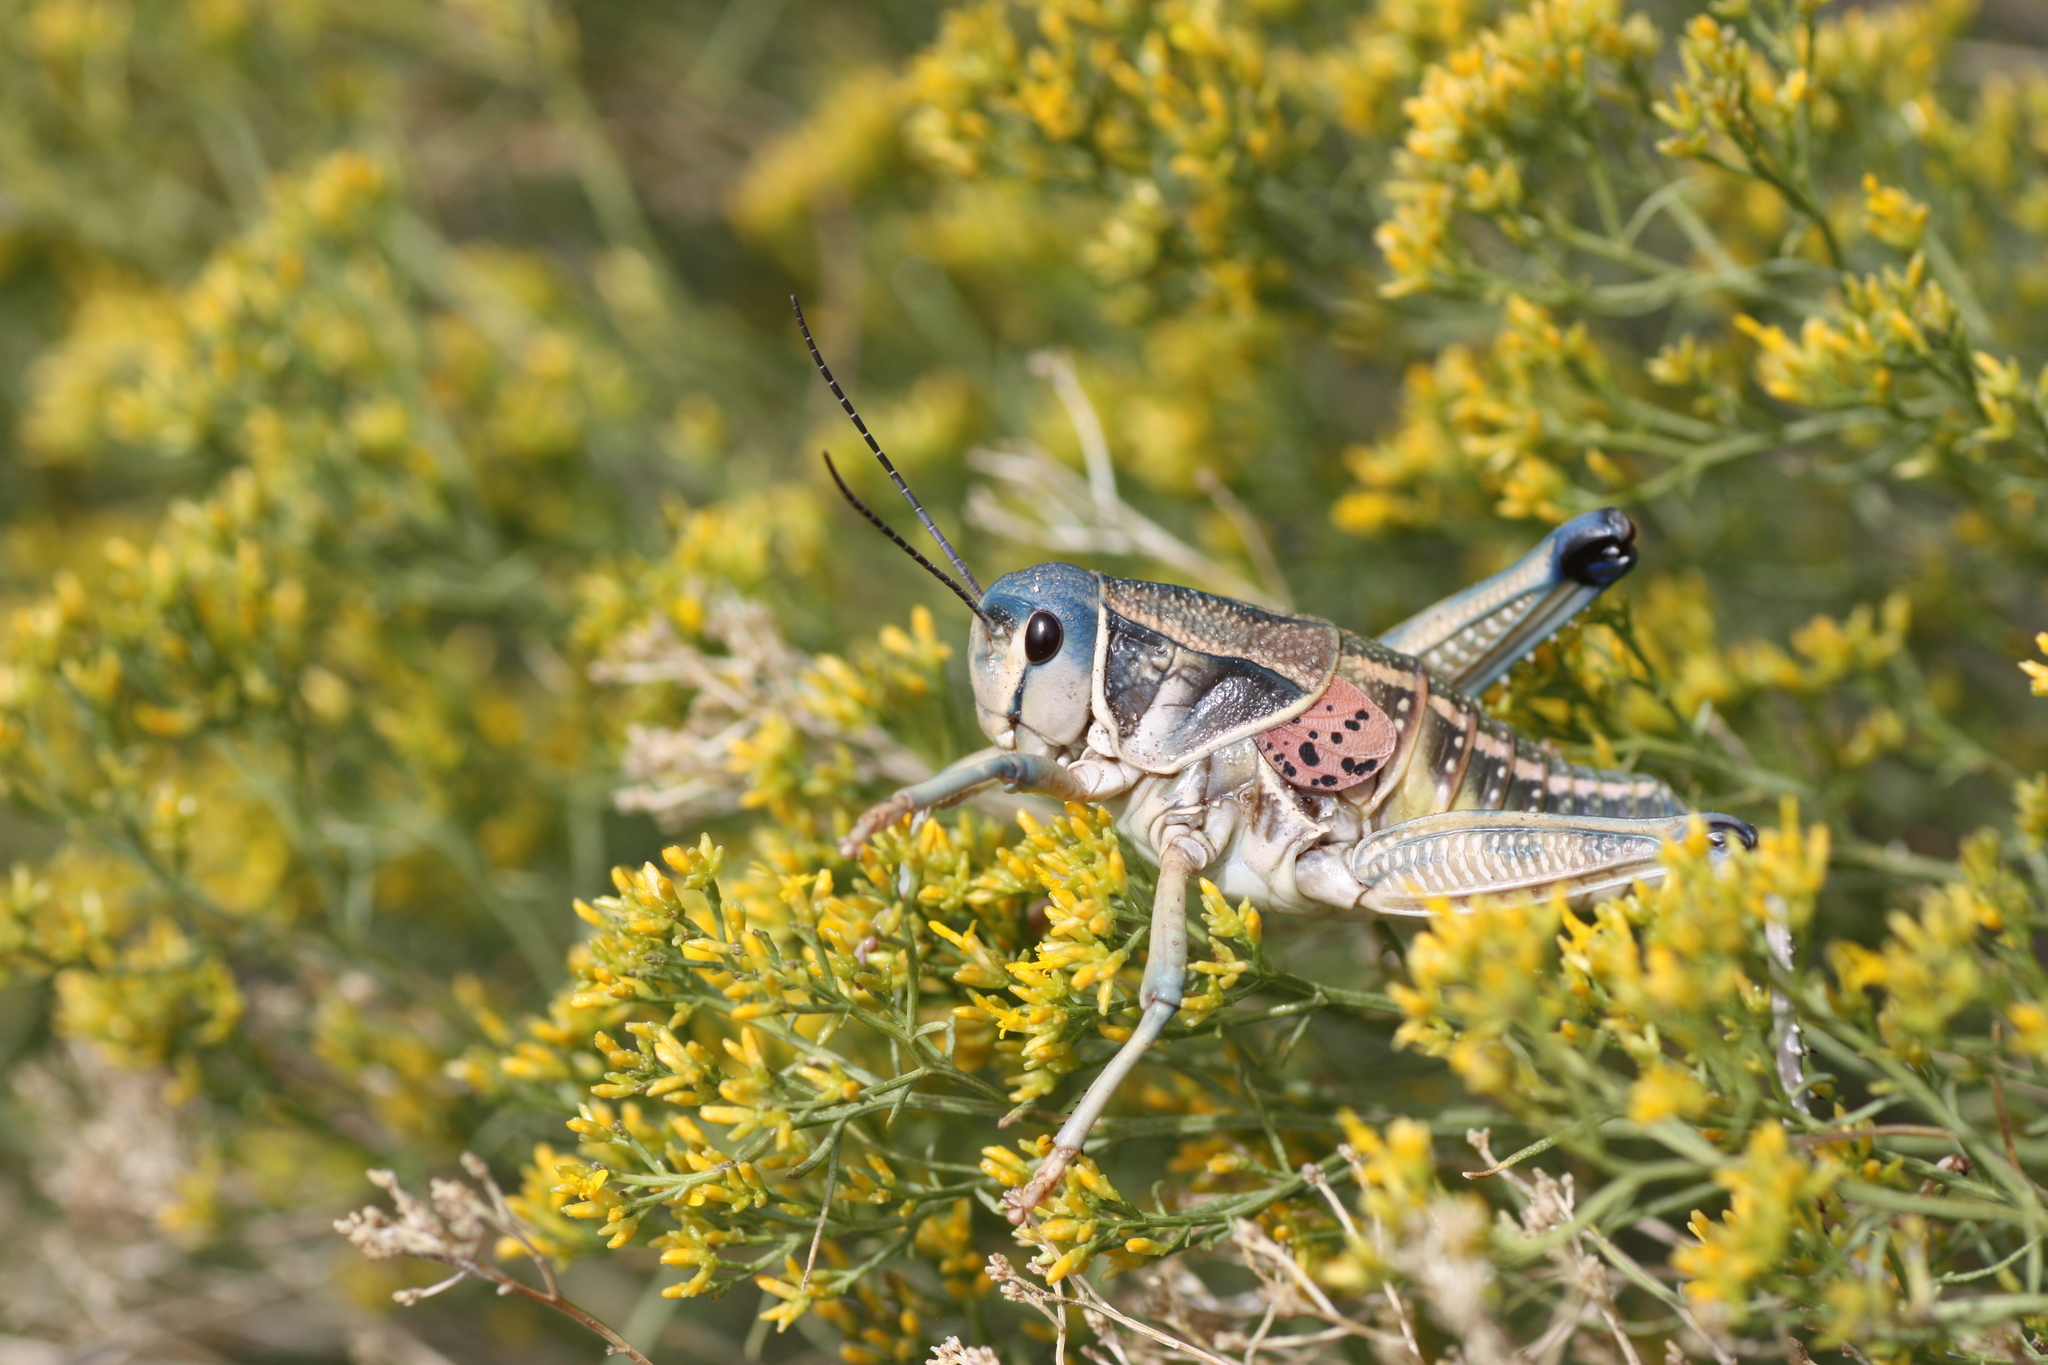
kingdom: Animalia
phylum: Arthropoda
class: Insecta
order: Orthoptera
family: Romaleidae
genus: Brachystola
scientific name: Brachystola magna
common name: Plains lubber grasshopper
